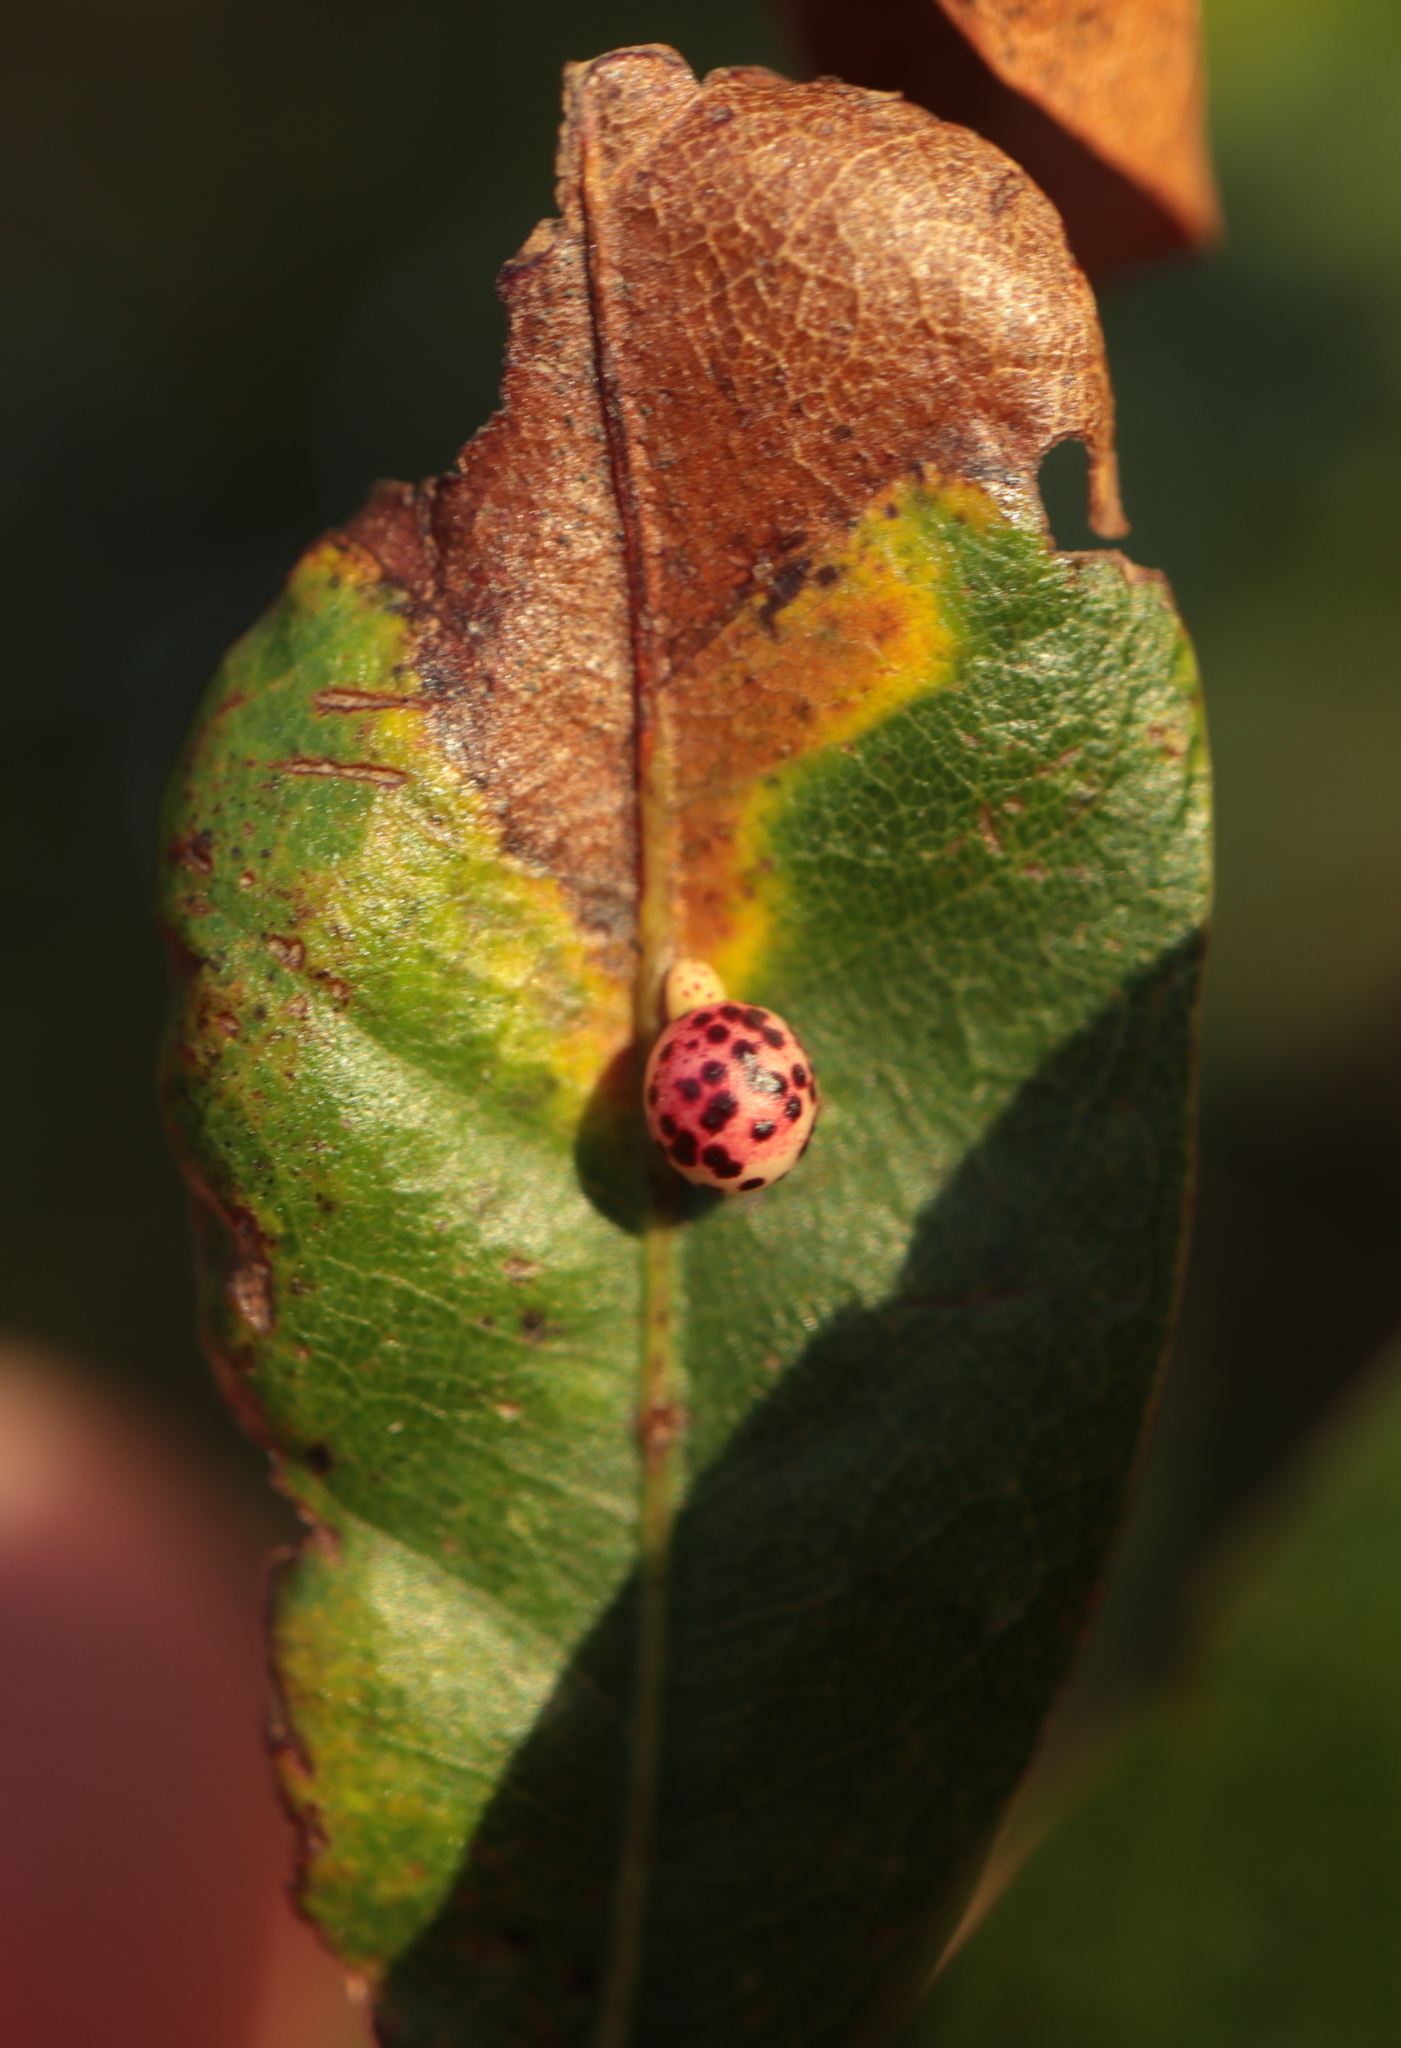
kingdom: Animalia
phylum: Arthropoda
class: Insecta
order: Hymenoptera
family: Cynipidae
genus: Zopheroteras
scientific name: Zopheroteras
